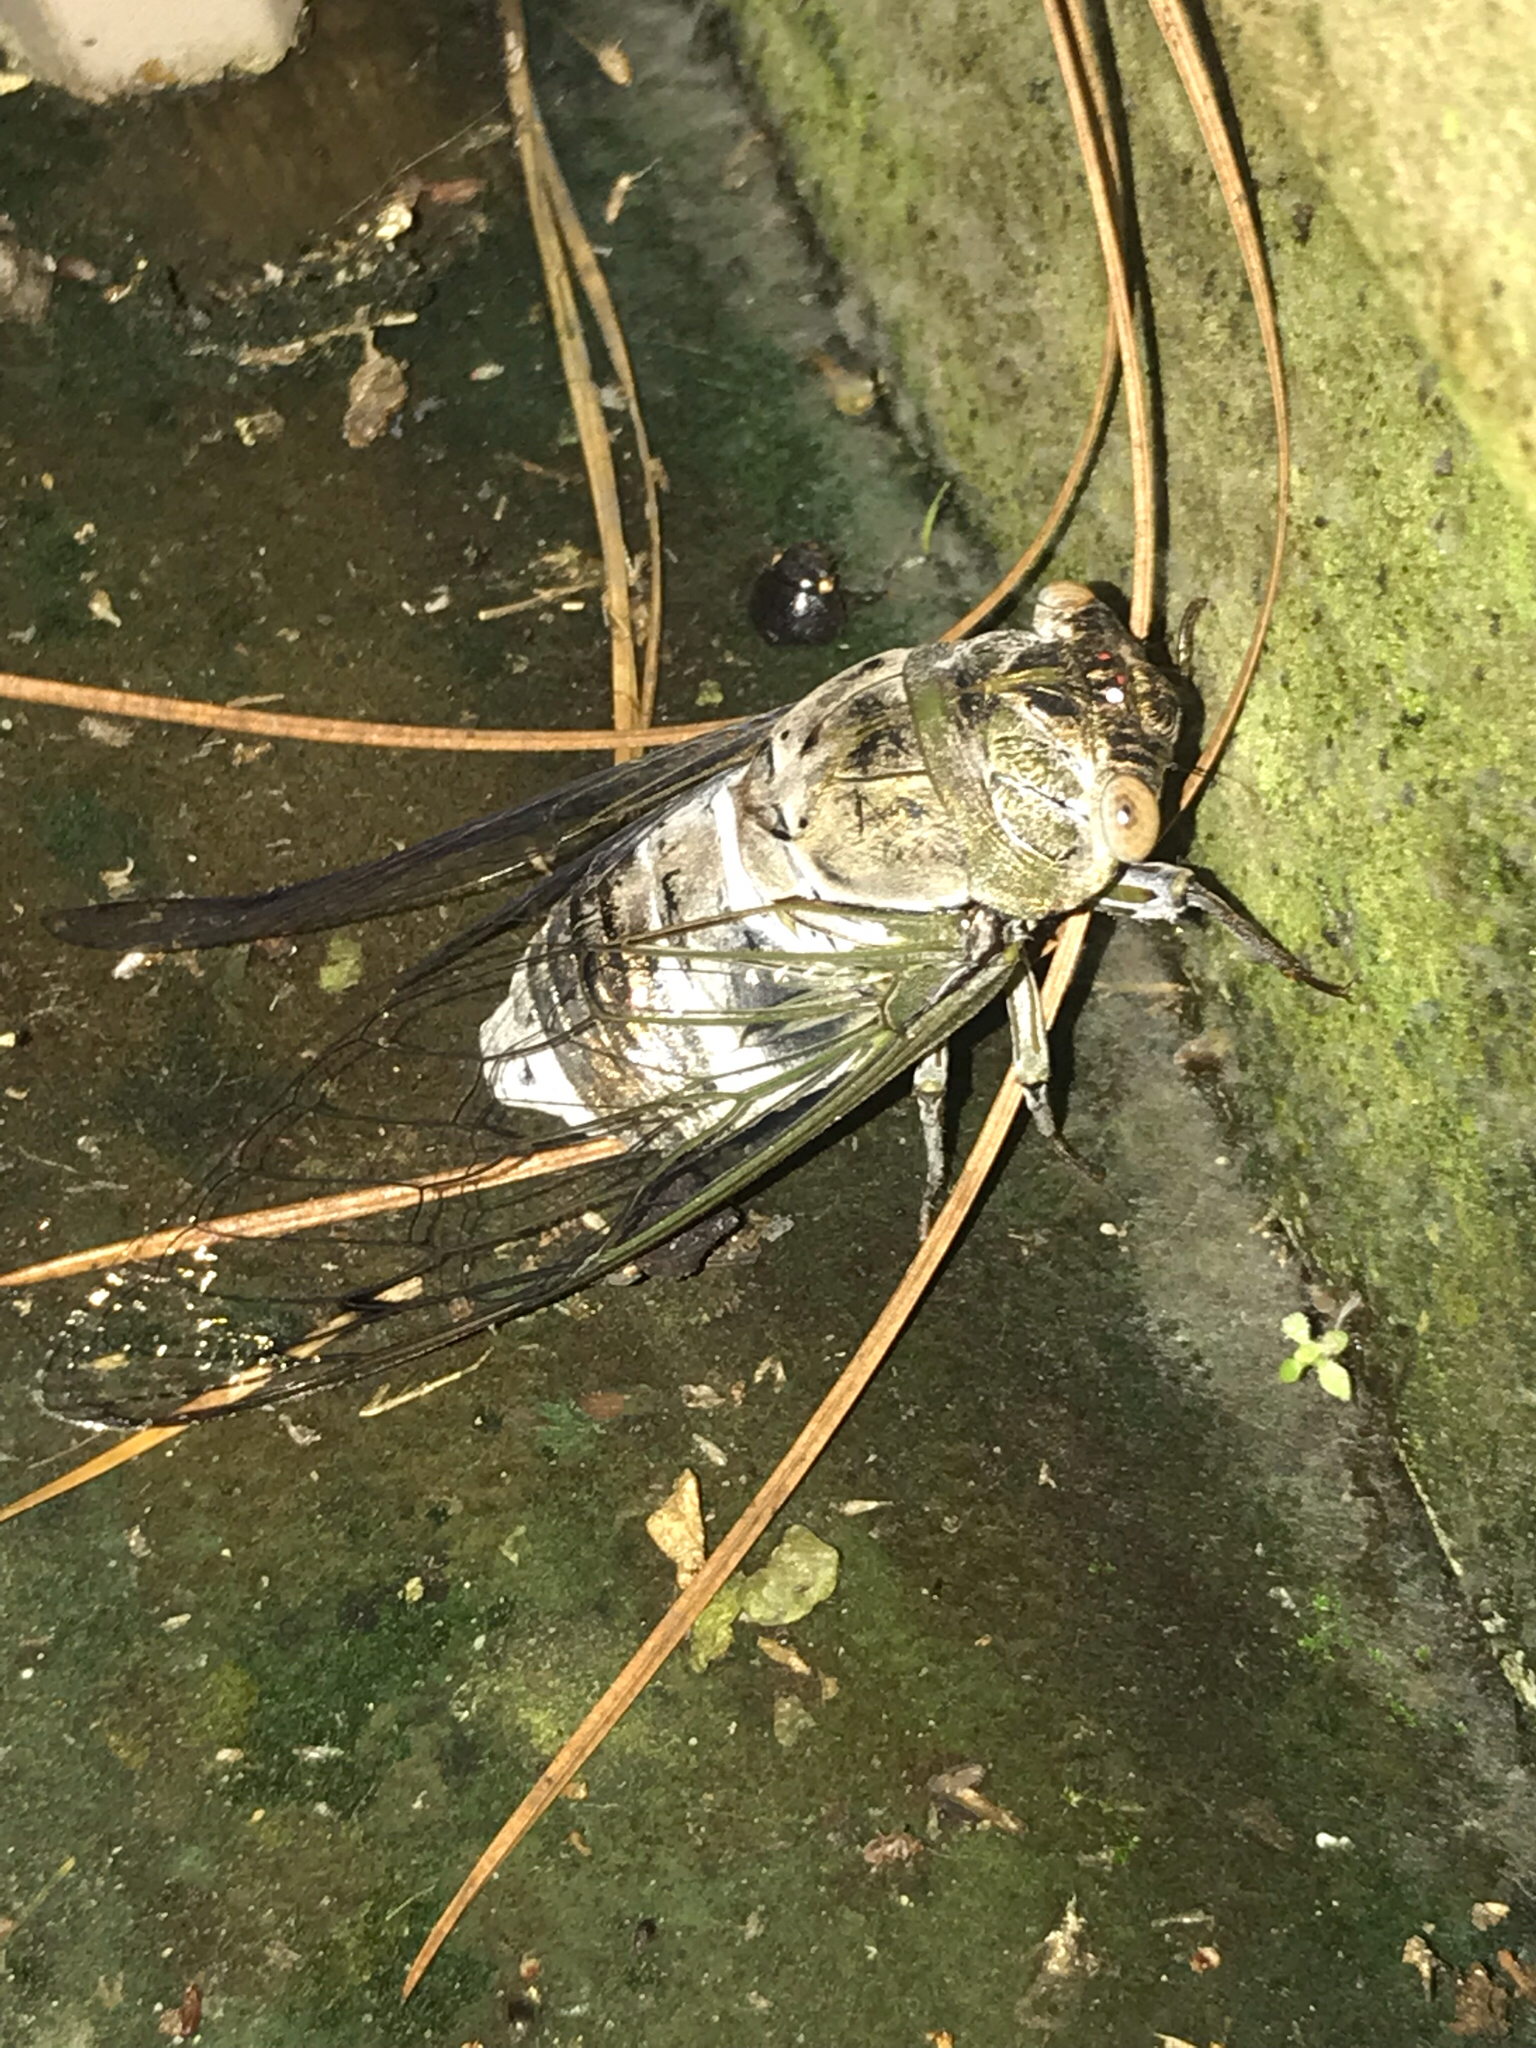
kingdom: Animalia
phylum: Arthropoda
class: Insecta
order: Hemiptera
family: Cicadidae
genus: Diceroprocta
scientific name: Diceroprocta grossa
